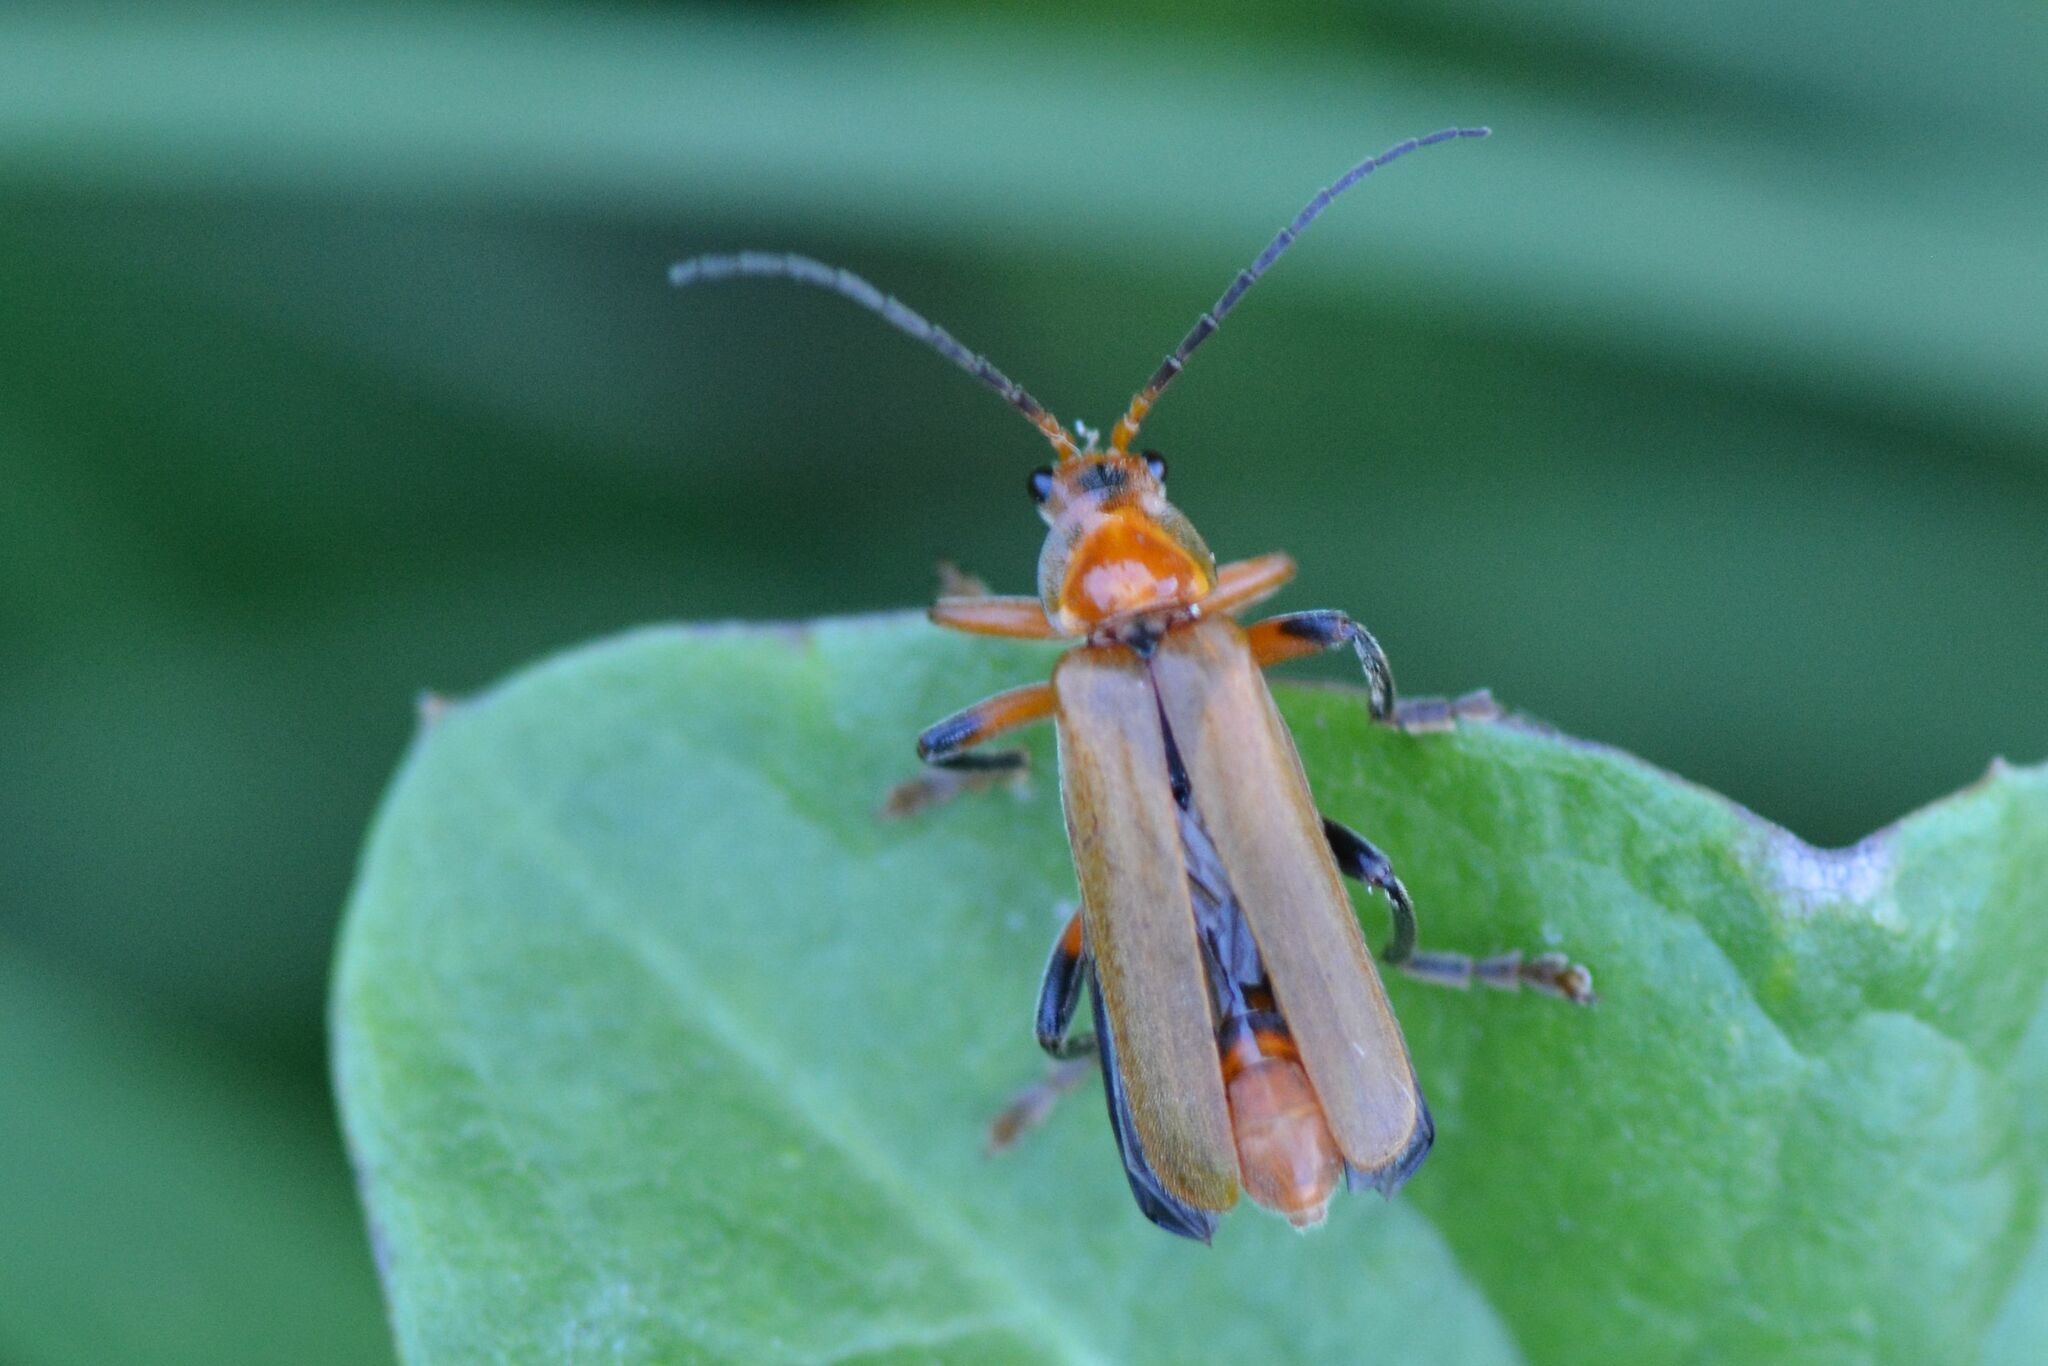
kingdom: Animalia
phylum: Arthropoda
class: Insecta
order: Coleoptera
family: Cantharidae
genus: Cantharis
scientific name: Cantharis livida
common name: Livid soldier beetle
